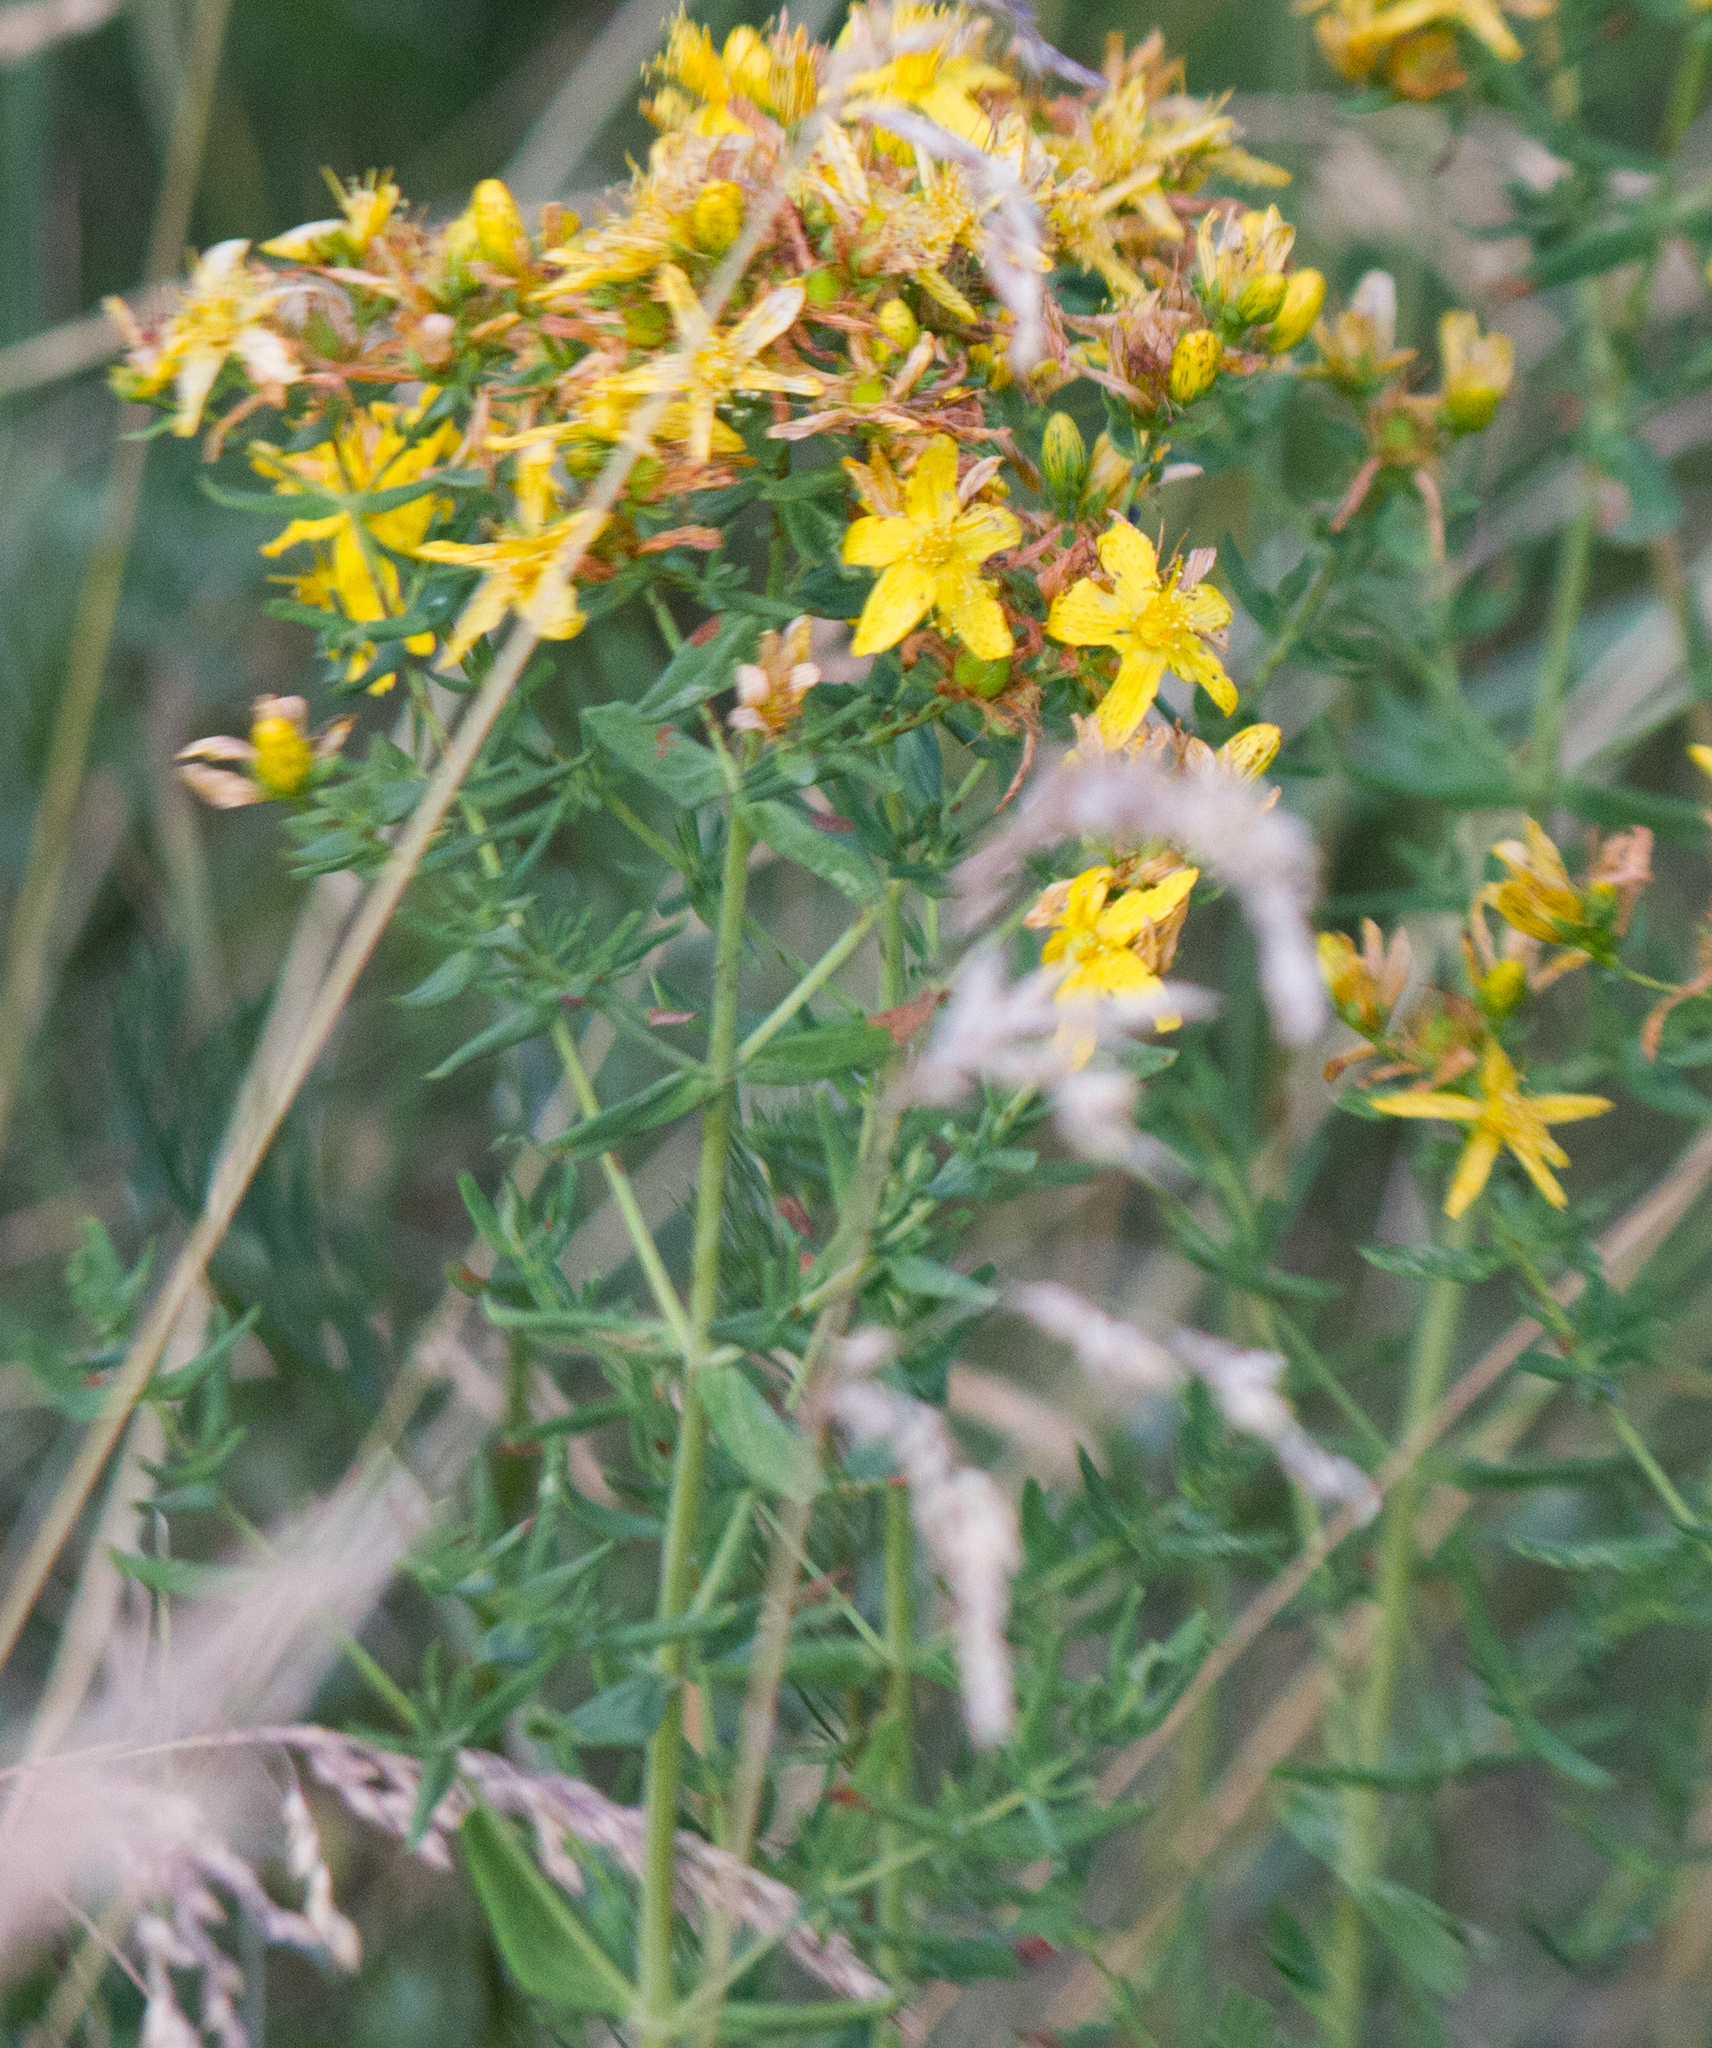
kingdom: Plantae
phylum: Tracheophyta
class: Magnoliopsida
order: Malpighiales
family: Hypericaceae
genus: Hypericum
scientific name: Hypericum perforatum
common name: Common st. johnswort
